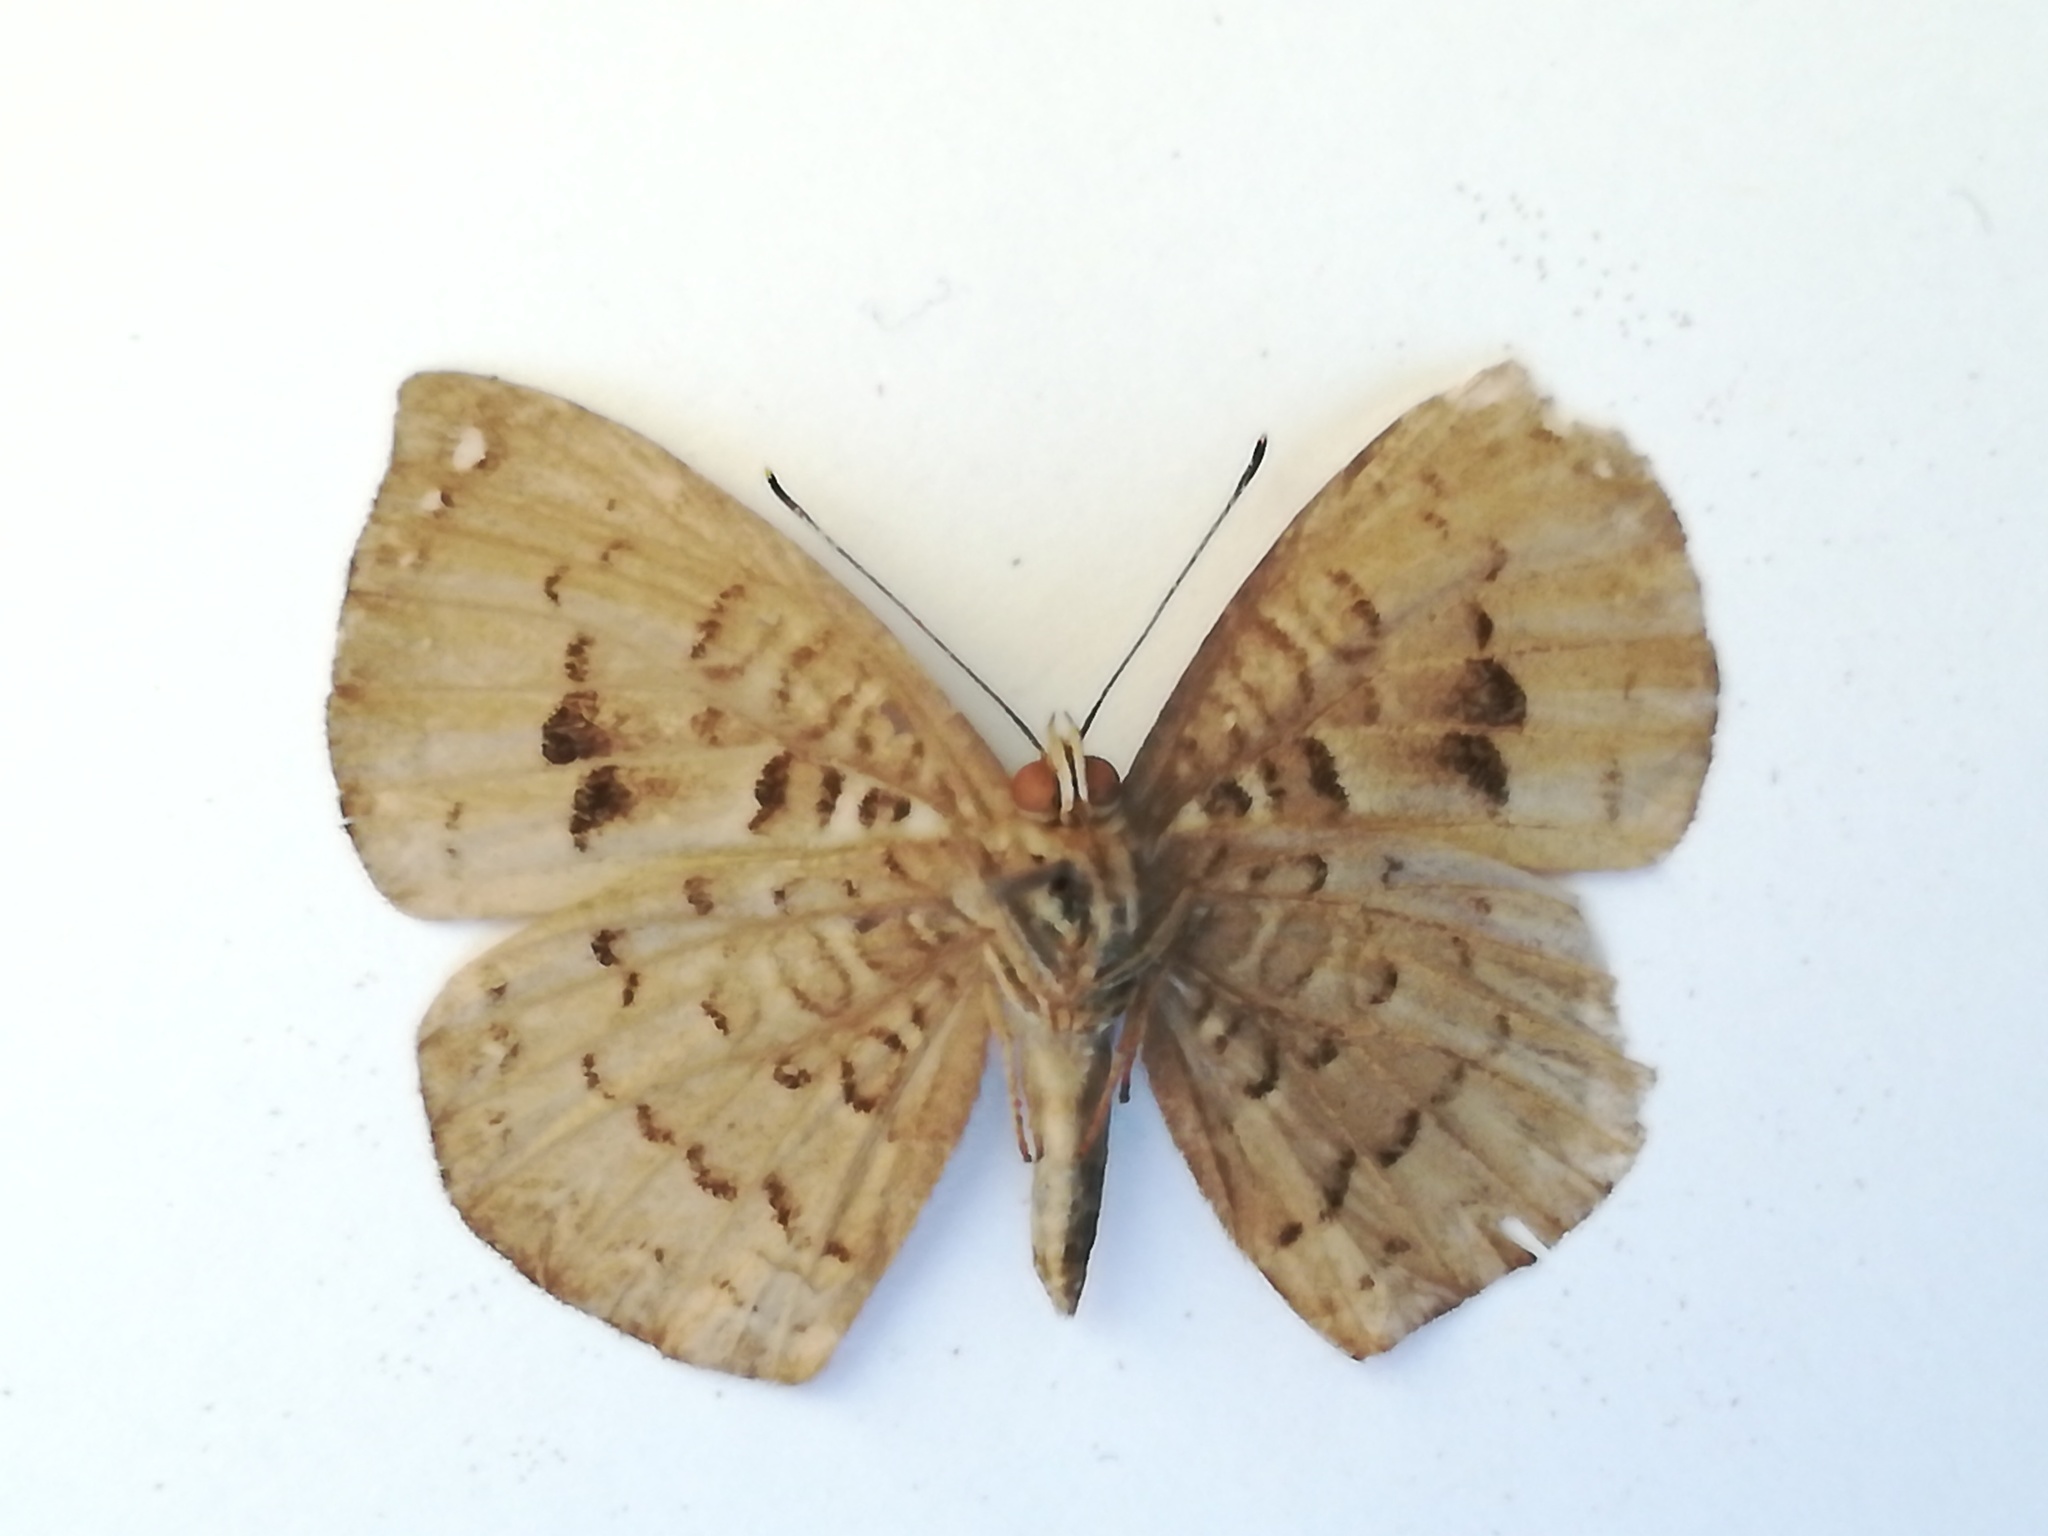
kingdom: Animalia
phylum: Arthropoda
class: Insecta
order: Lepidoptera
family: Riodinidae
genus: Voltinia
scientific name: Voltinia umbra
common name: Quilted metalmark
